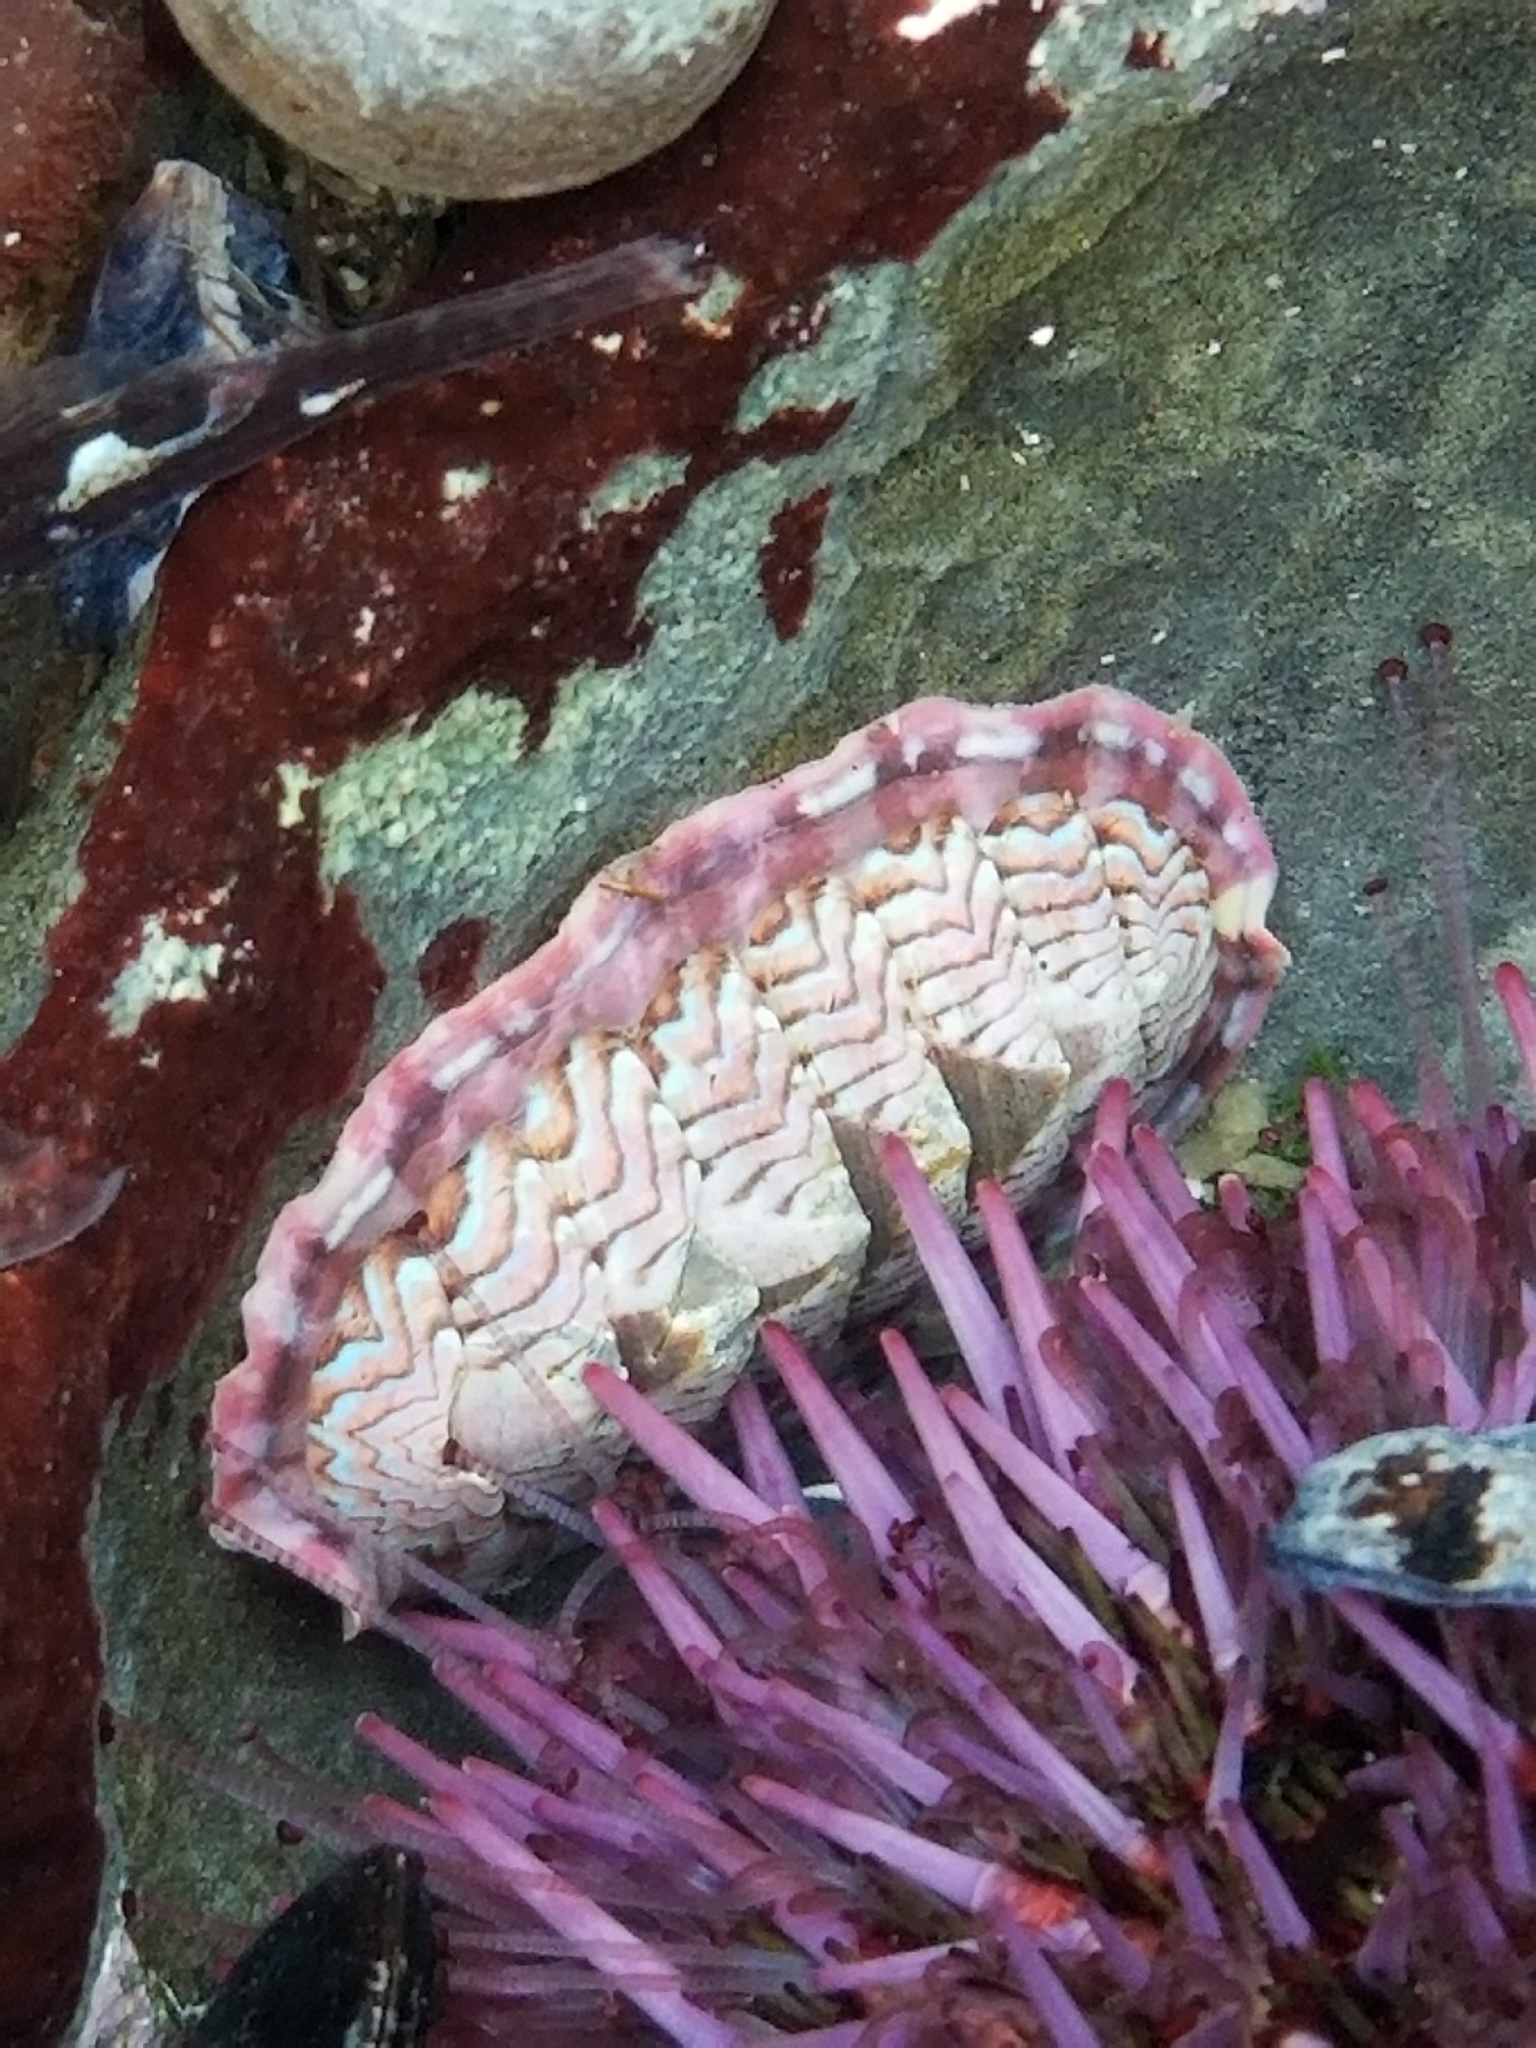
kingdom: Animalia
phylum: Mollusca
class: Polyplacophora
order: Chitonida
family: Tonicellidae
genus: Tonicella
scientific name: Tonicella lokii
